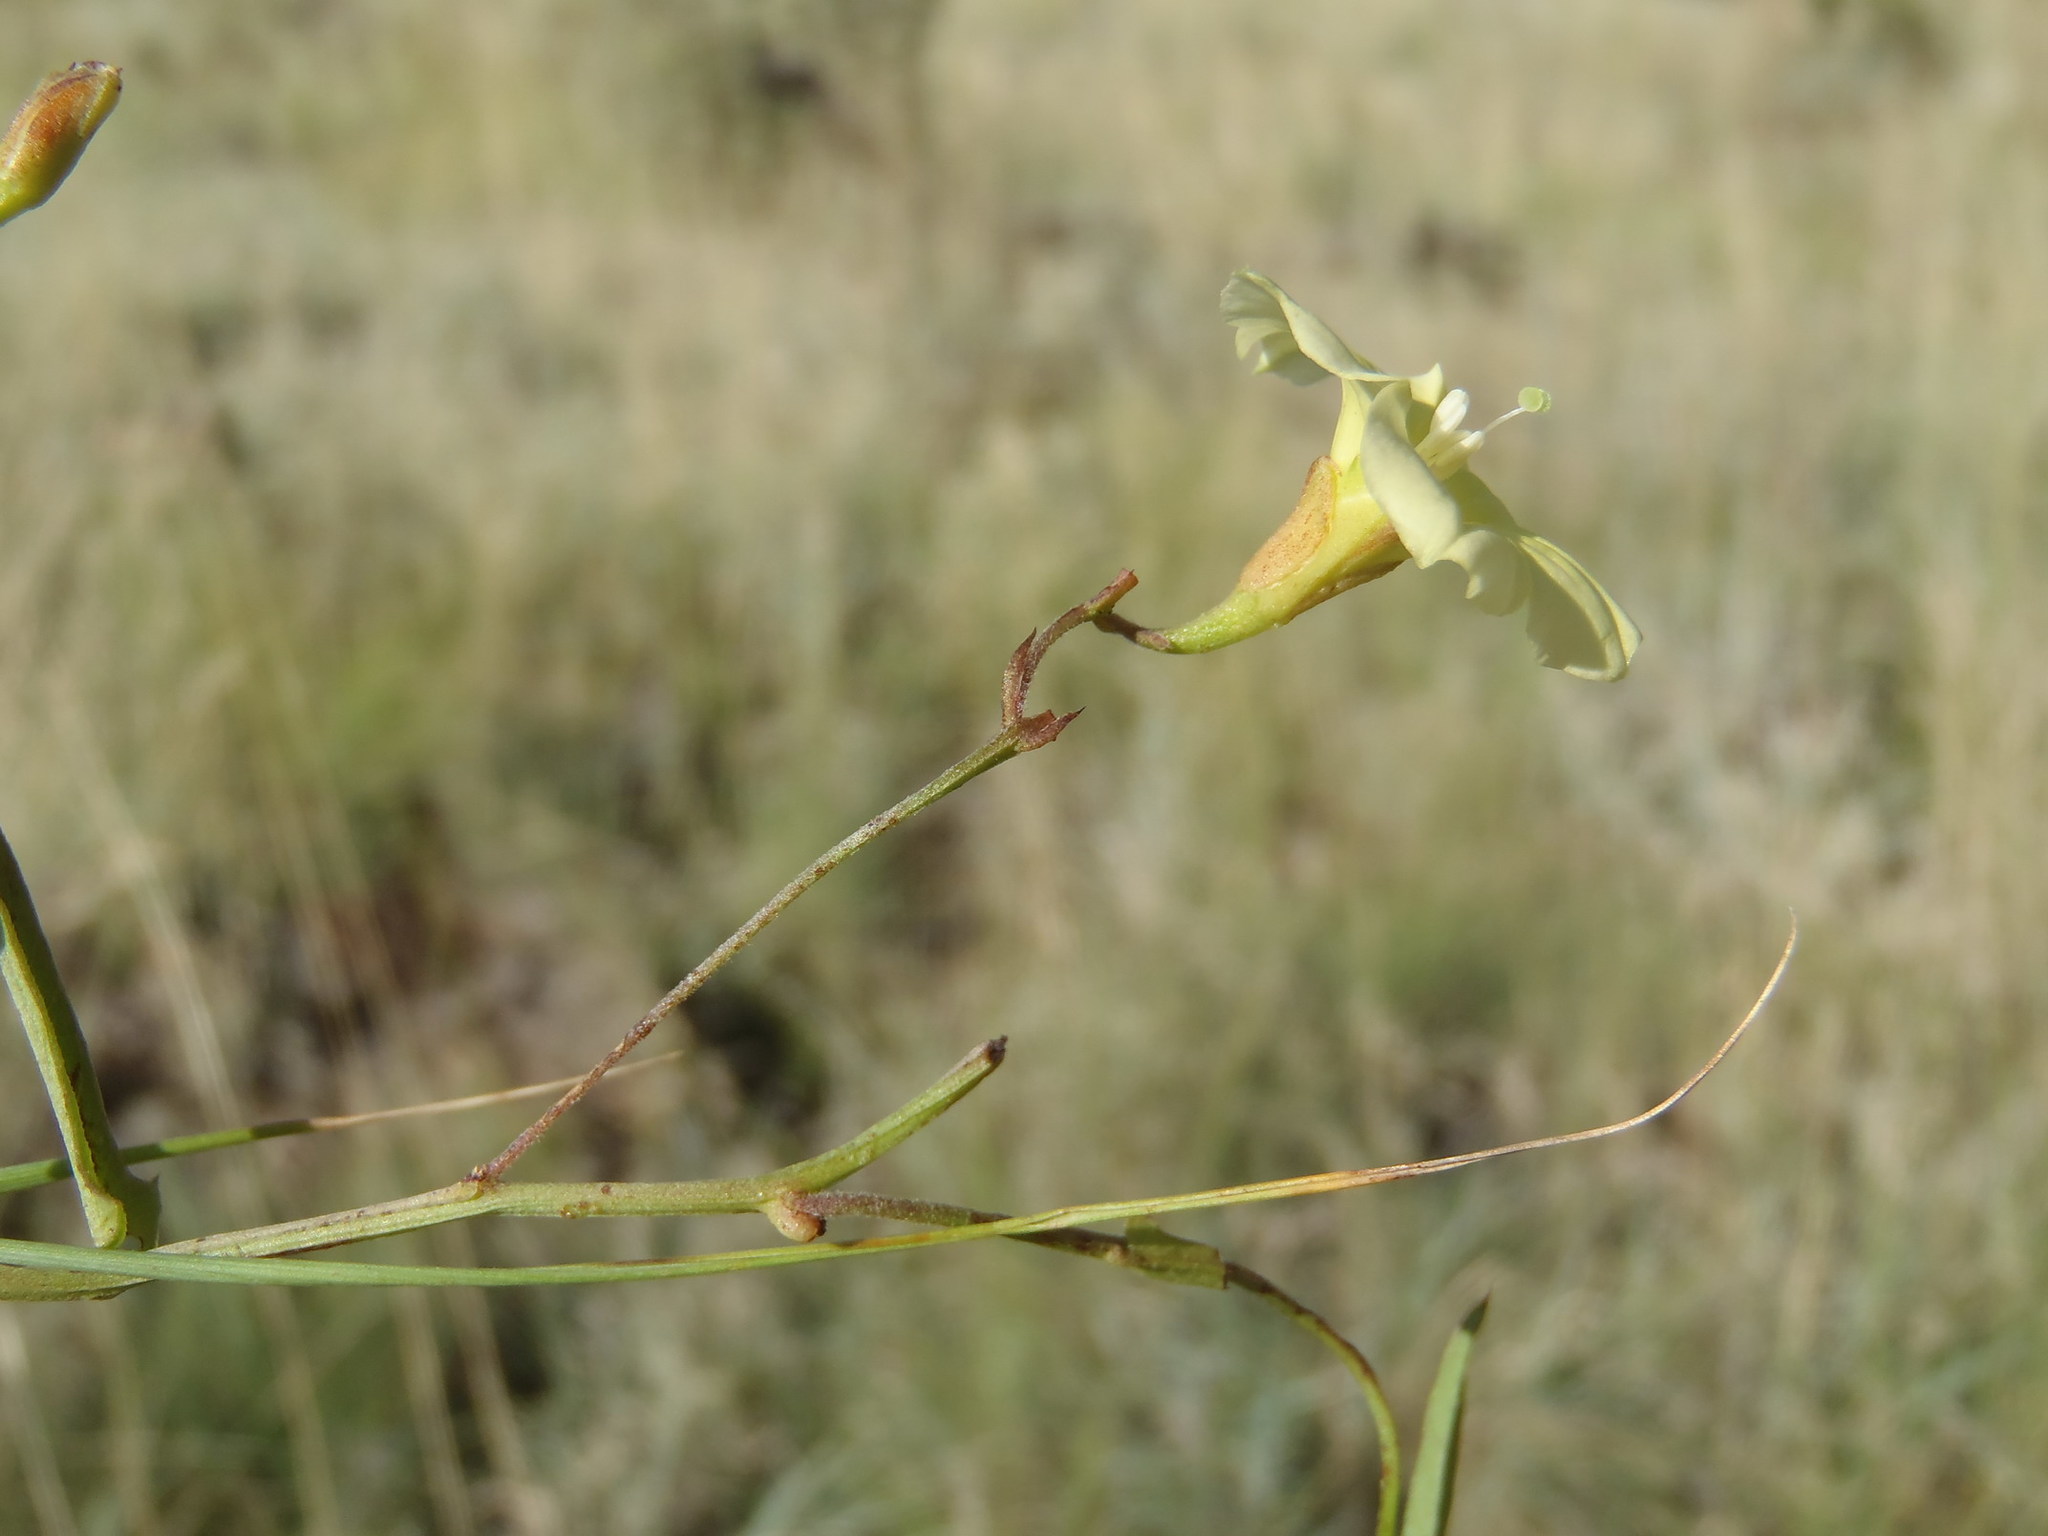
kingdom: Plantae
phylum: Tracheophyta
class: Magnoliopsida
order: Solanales
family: Convolvulaceae
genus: Xenostegia
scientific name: Xenostegia tridentata
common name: African morningvine
